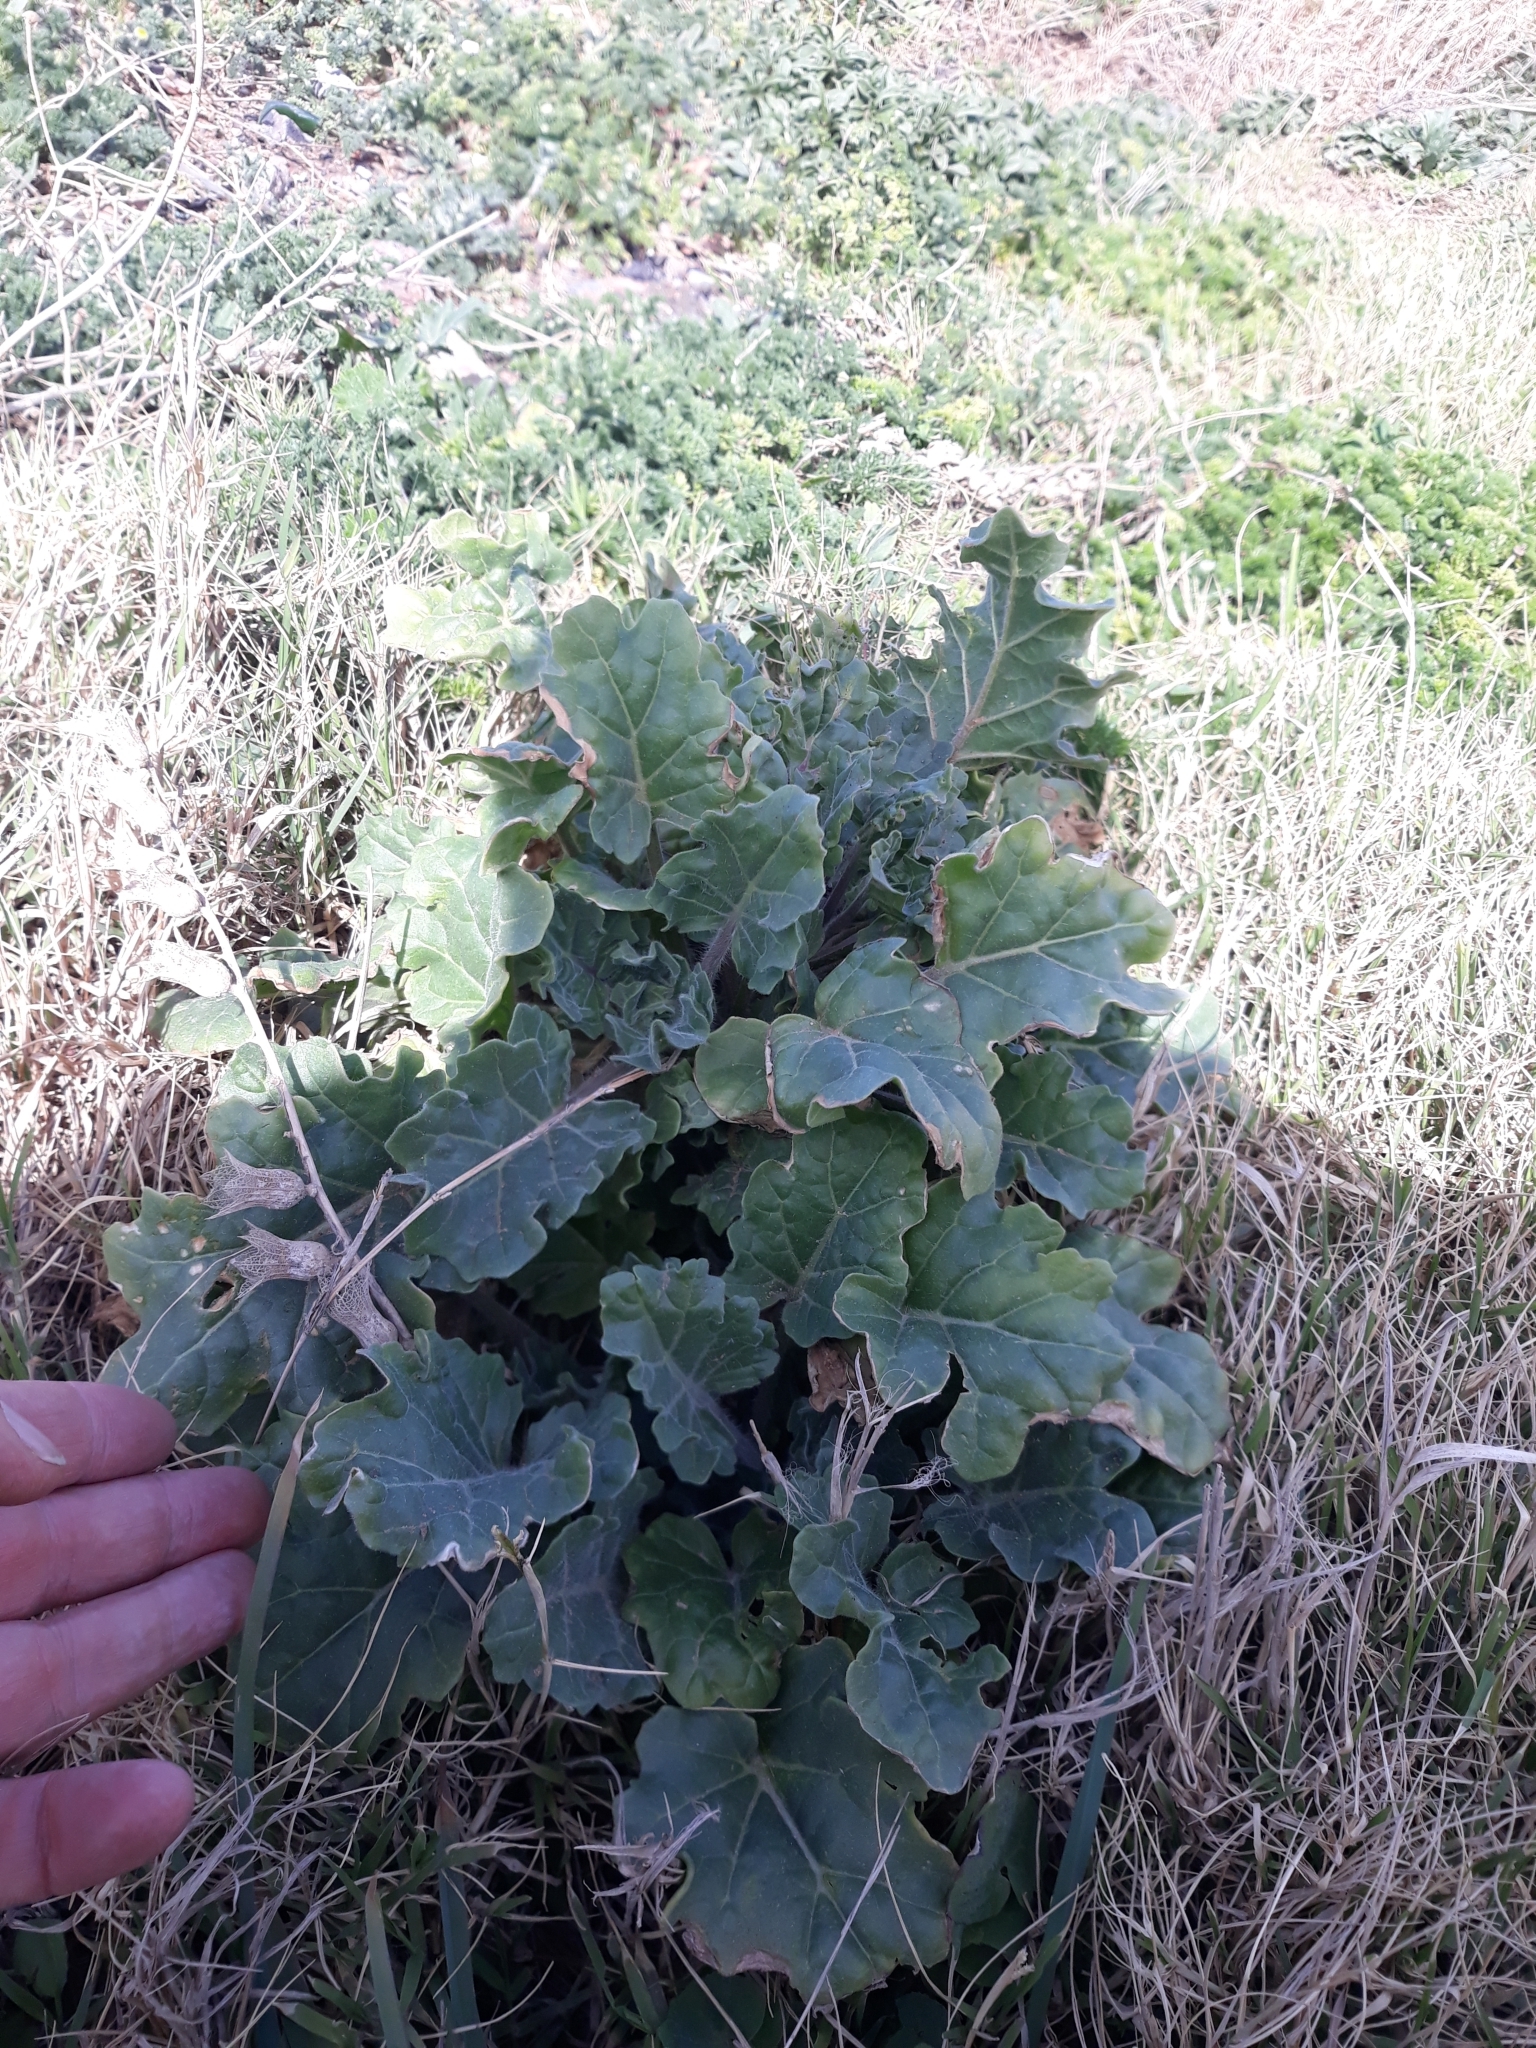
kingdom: Plantae
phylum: Tracheophyta
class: Magnoliopsida
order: Solanales
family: Solanaceae
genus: Hyoscyamus
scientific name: Hyoscyamus albus
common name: White henbane
